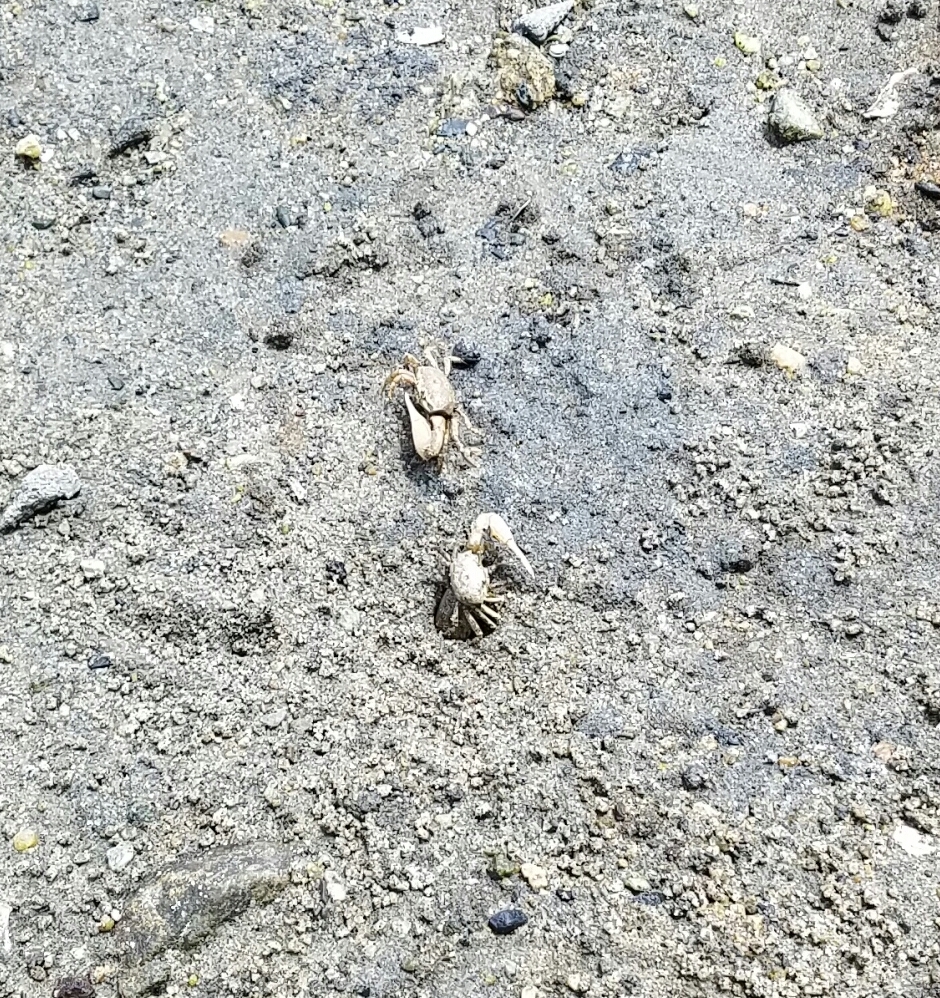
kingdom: Animalia
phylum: Arthropoda
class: Malacostraca
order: Decapoda
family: Ocypodidae
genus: Leptuca
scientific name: Leptuca crenulata
